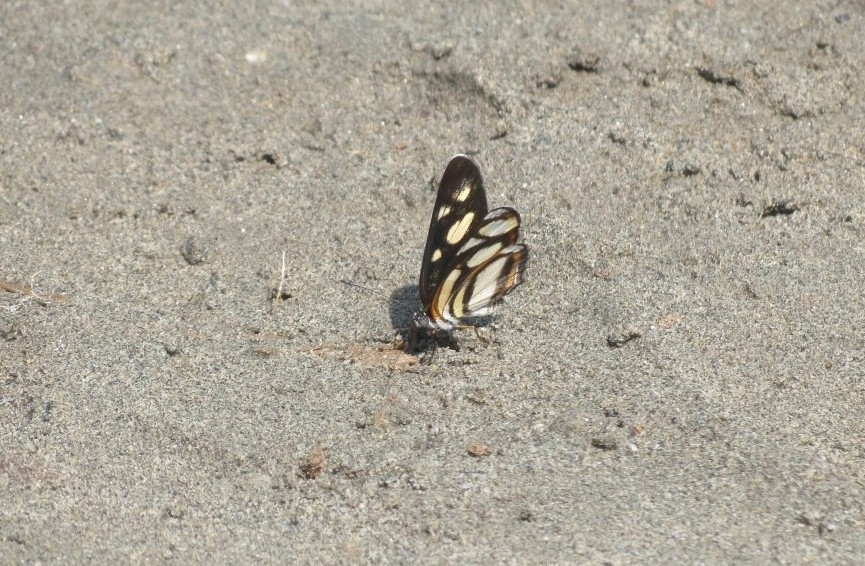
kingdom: Animalia
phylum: Arthropoda
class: Insecta
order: Lepidoptera
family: Nymphalidae
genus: Eresia
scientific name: Eresia clio
